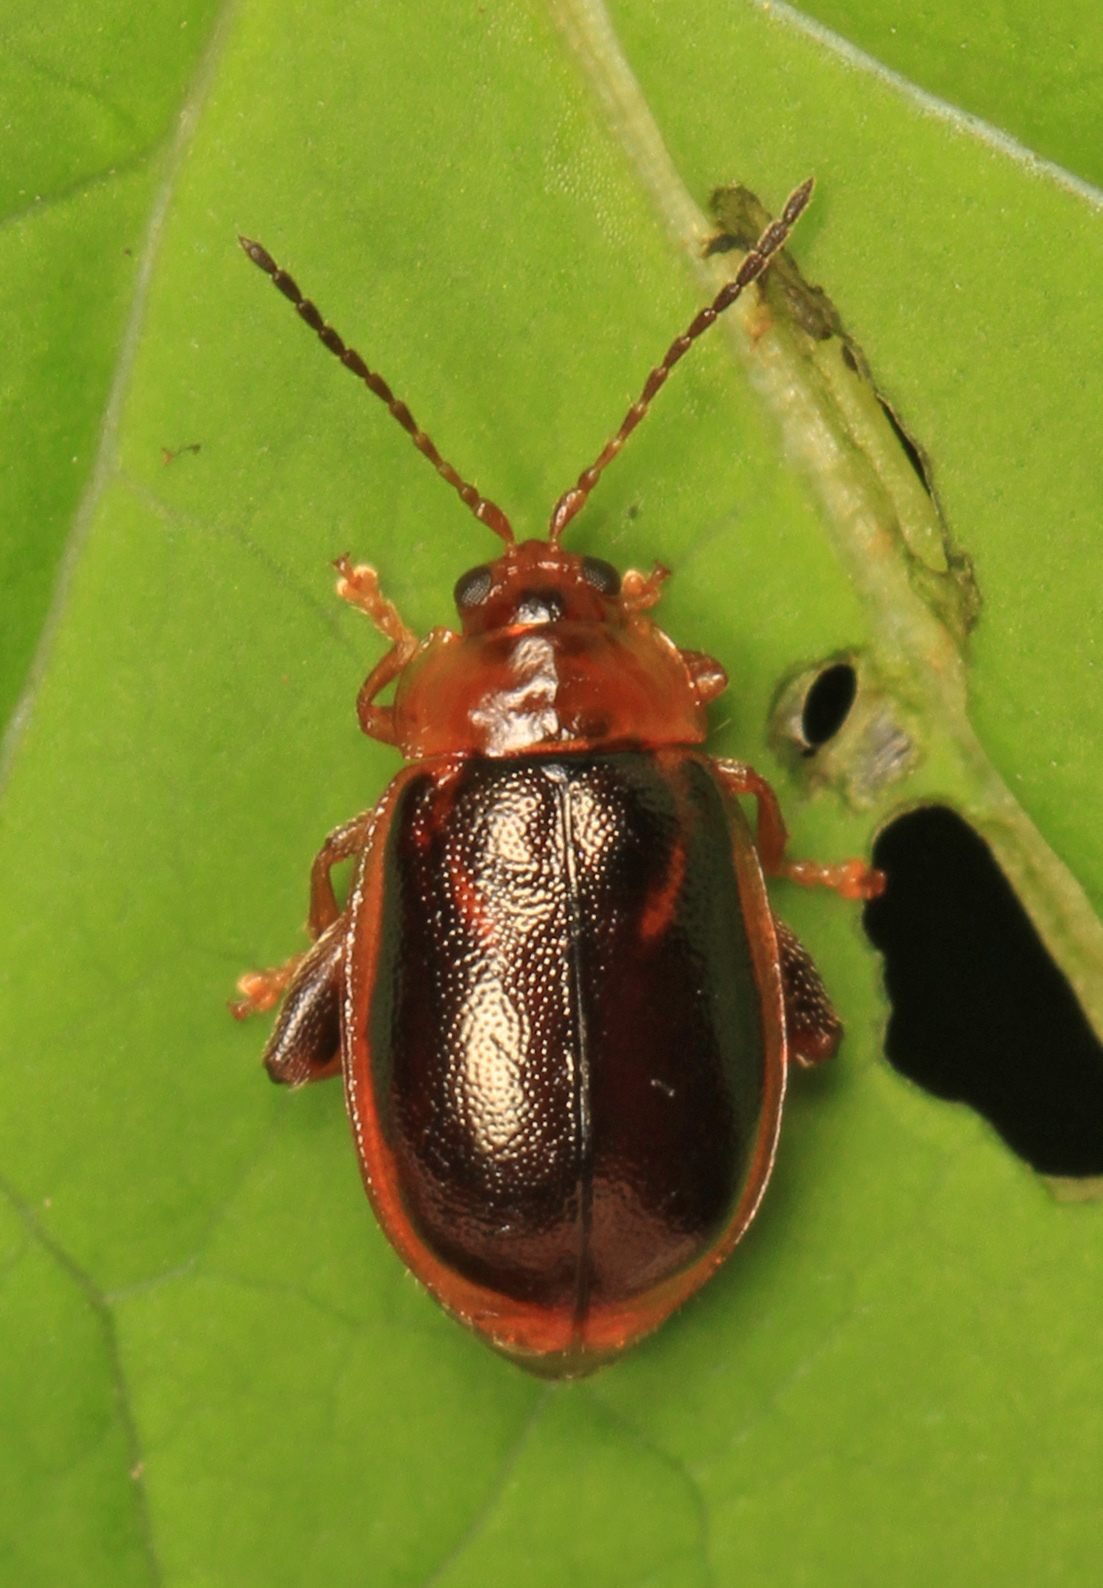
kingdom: Animalia
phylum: Arthropoda
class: Insecta
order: Coleoptera
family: Chrysomelidae
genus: Capraita
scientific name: Capraita subvittata
